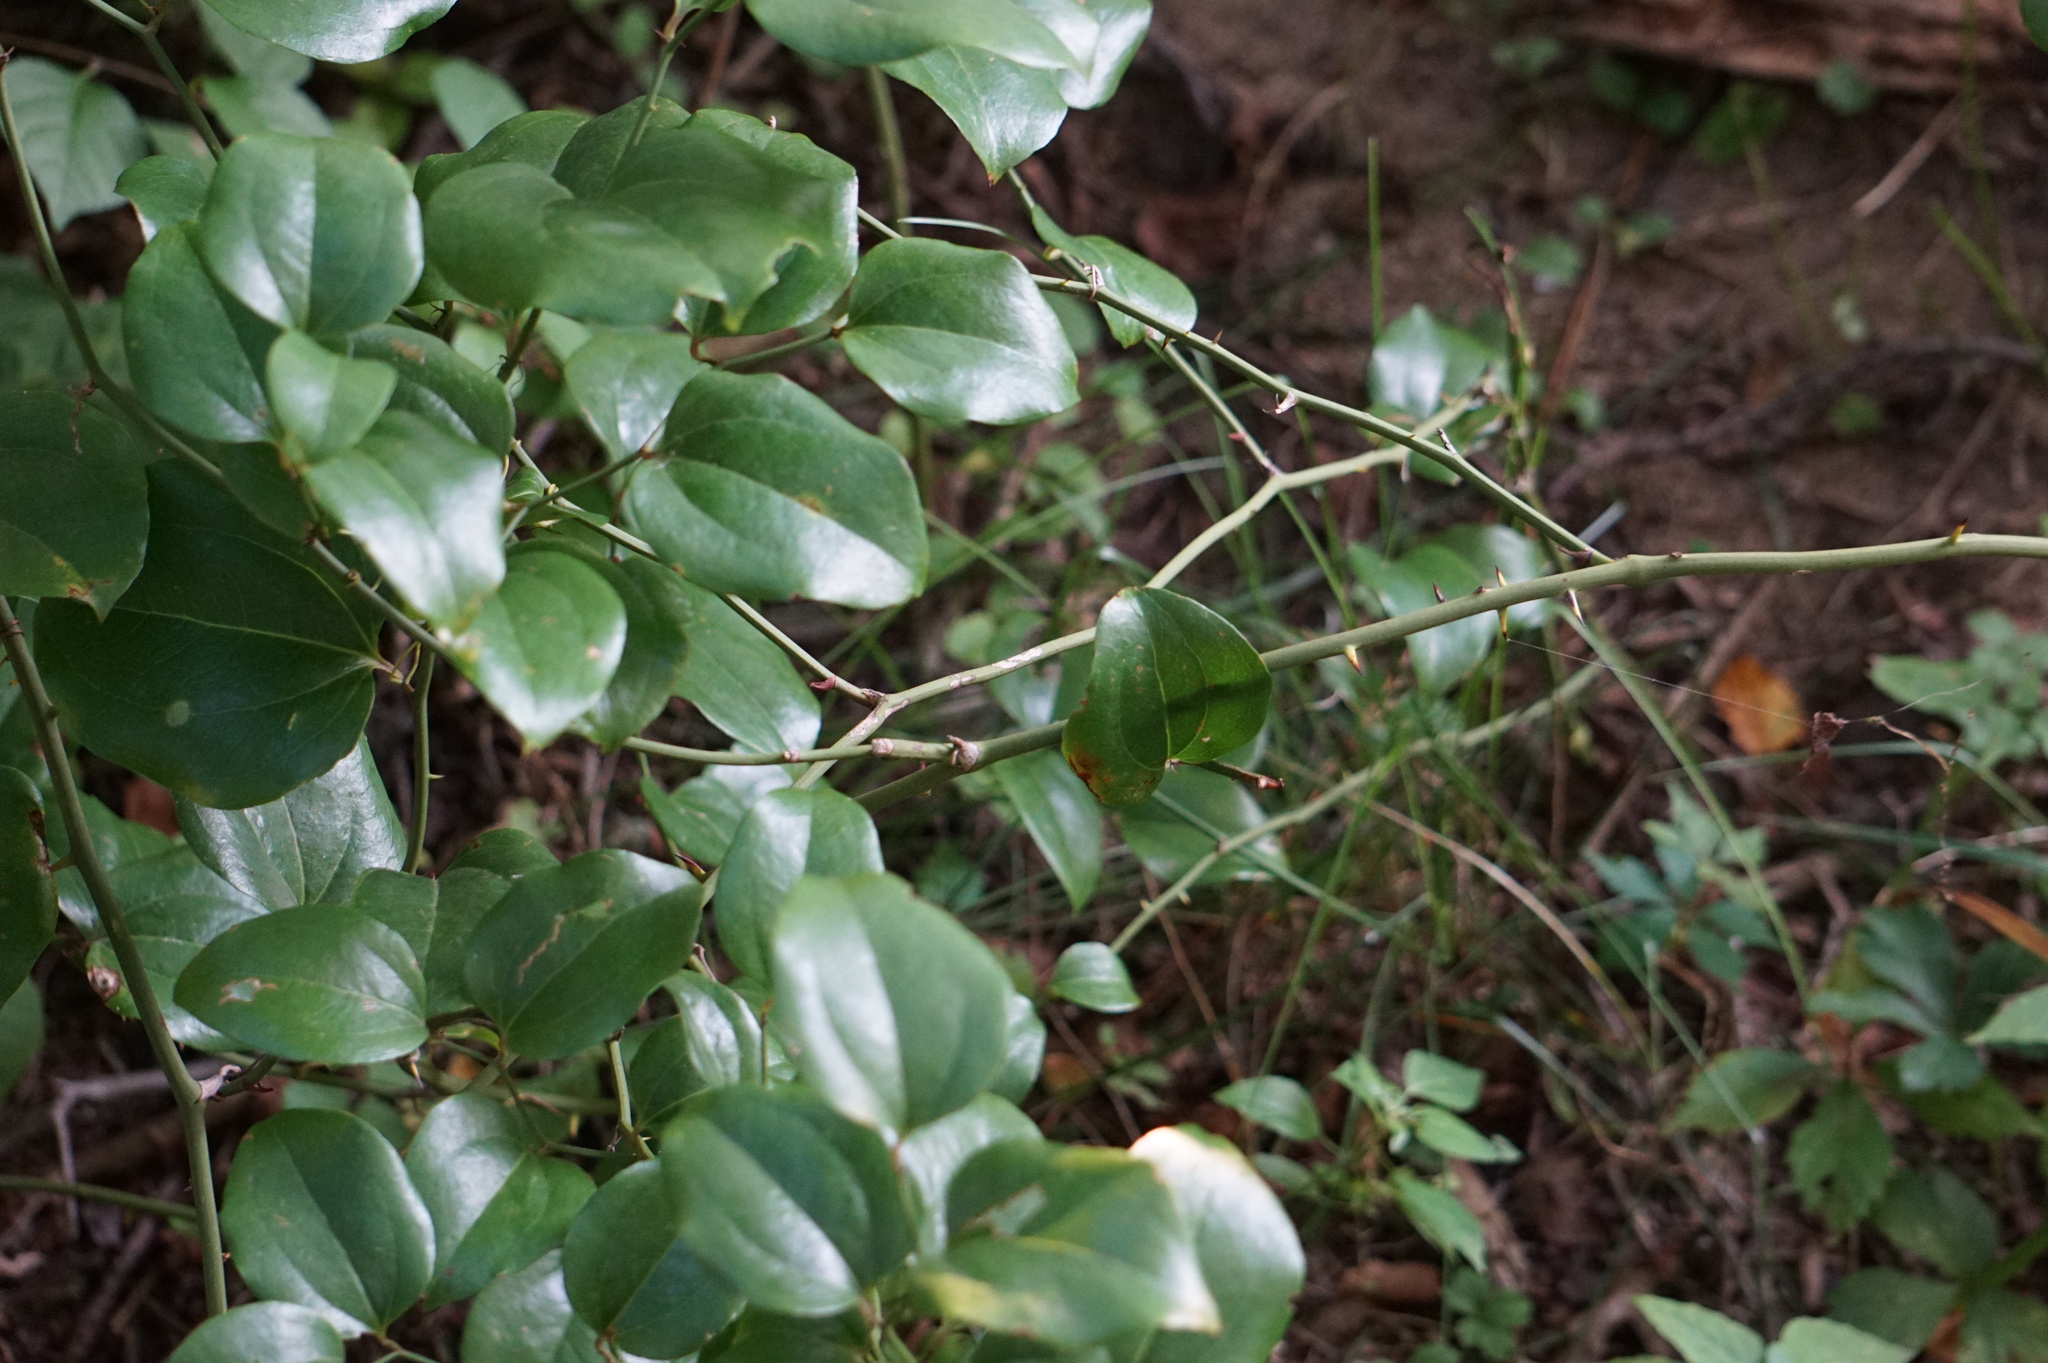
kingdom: Plantae
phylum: Tracheophyta
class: Liliopsida
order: Liliales
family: Smilacaceae
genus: Smilax
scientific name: Smilax rotundifolia
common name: Bullbriar
